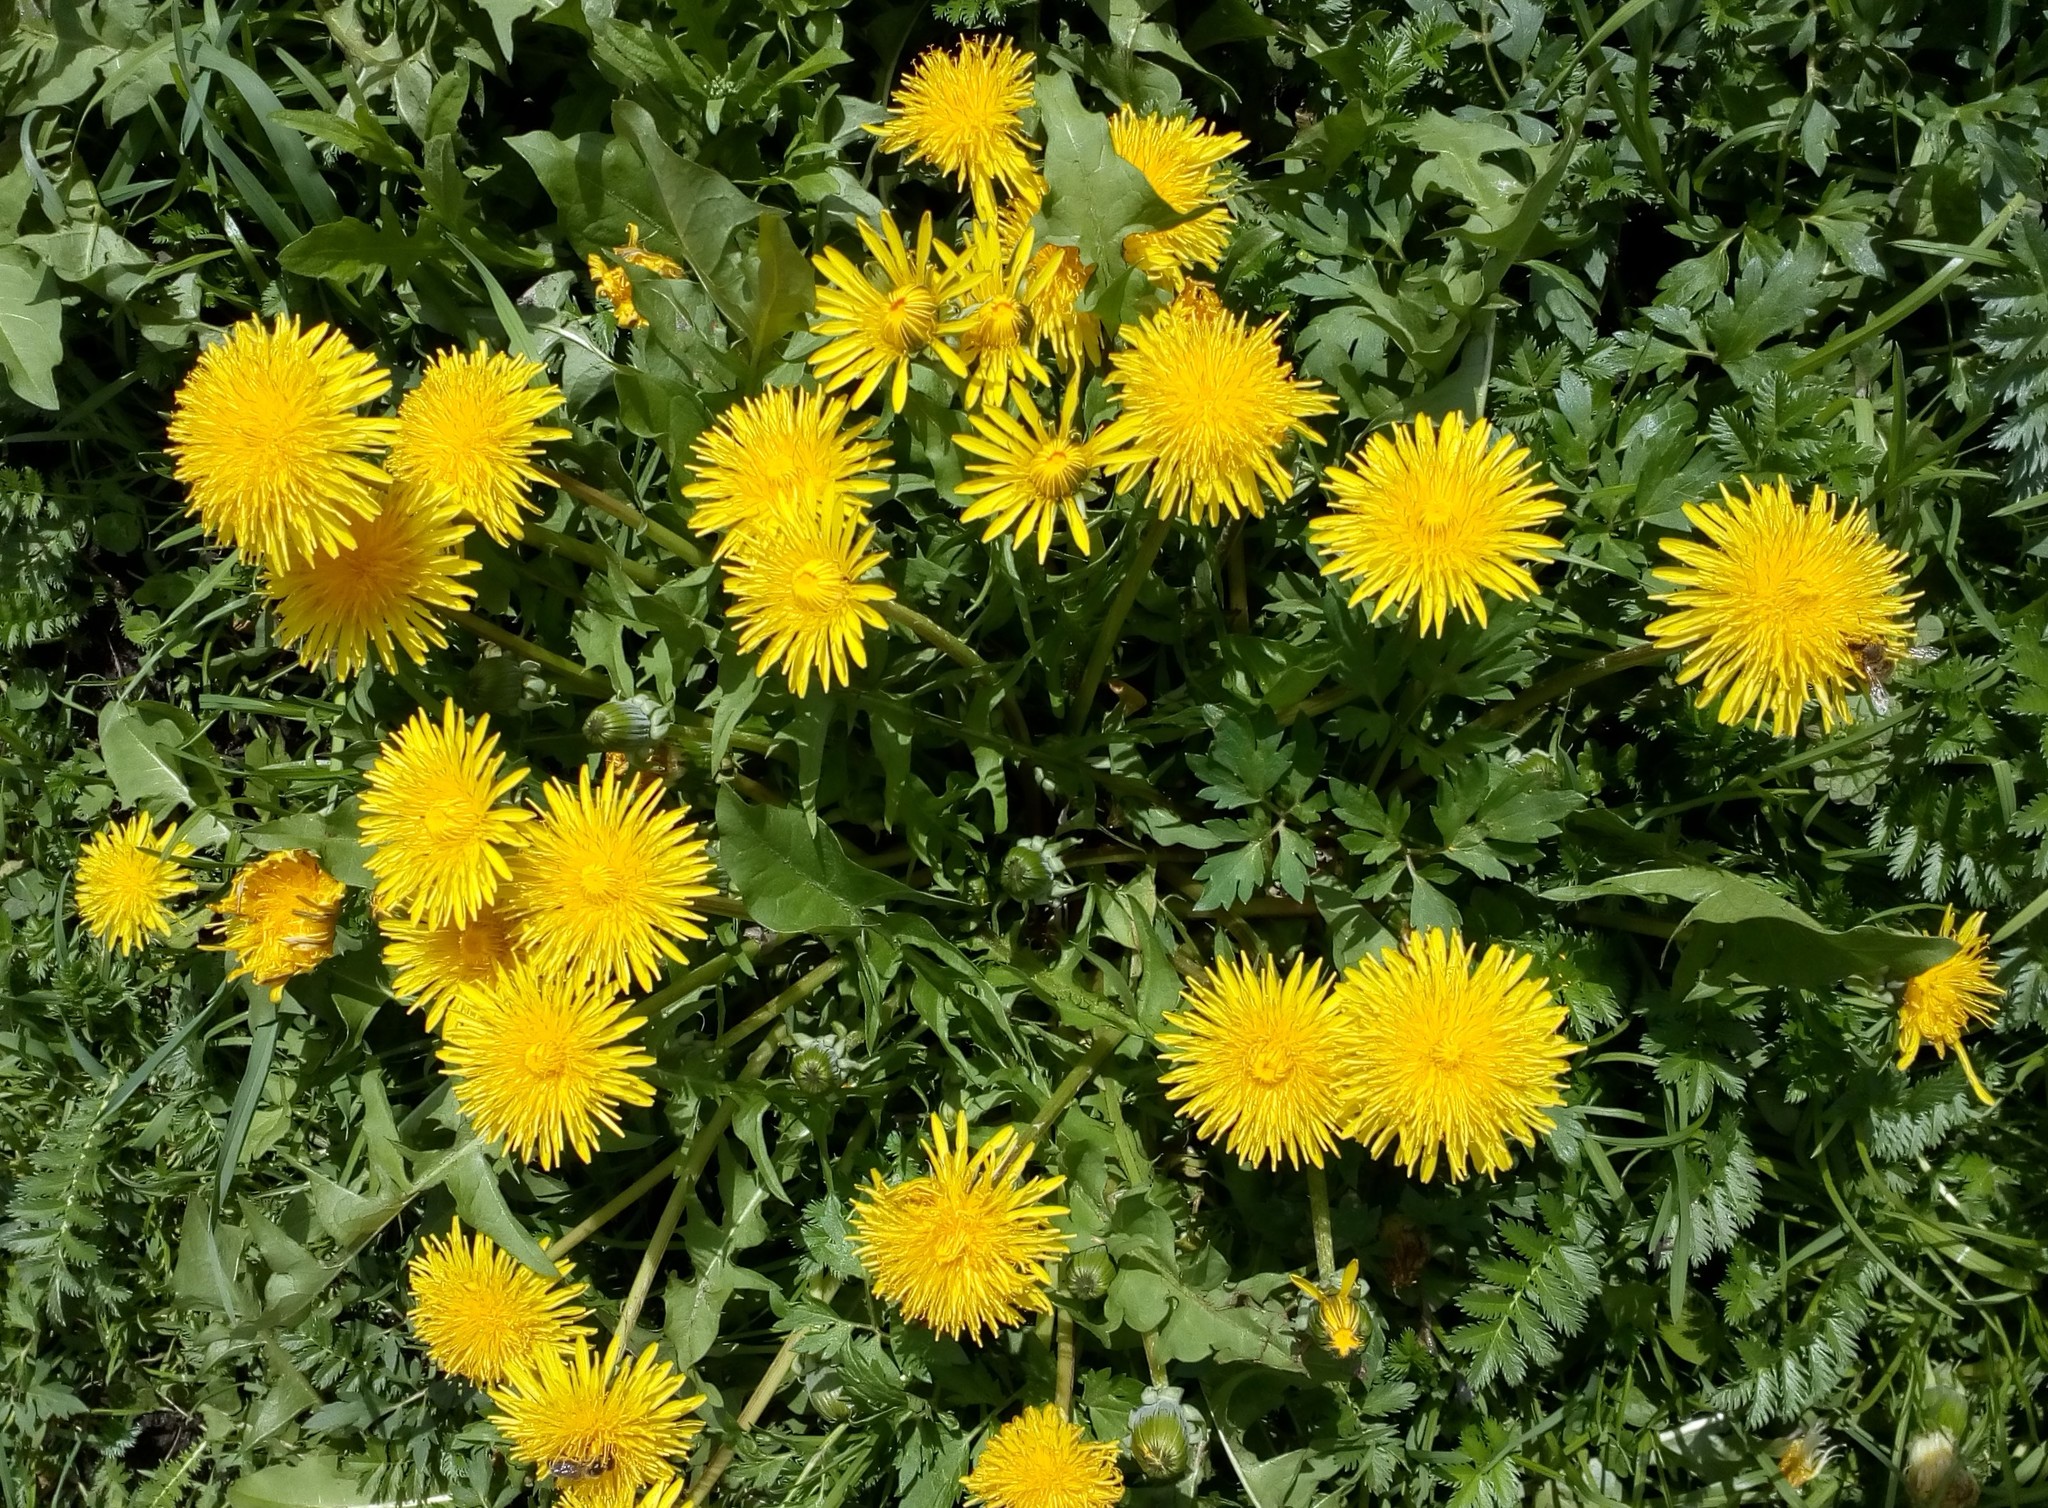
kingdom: Plantae
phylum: Tracheophyta
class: Magnoliopsida
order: Asterales
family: Asteraceae
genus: Taraxacum
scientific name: Taraxacum officinale
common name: Common dandelion
